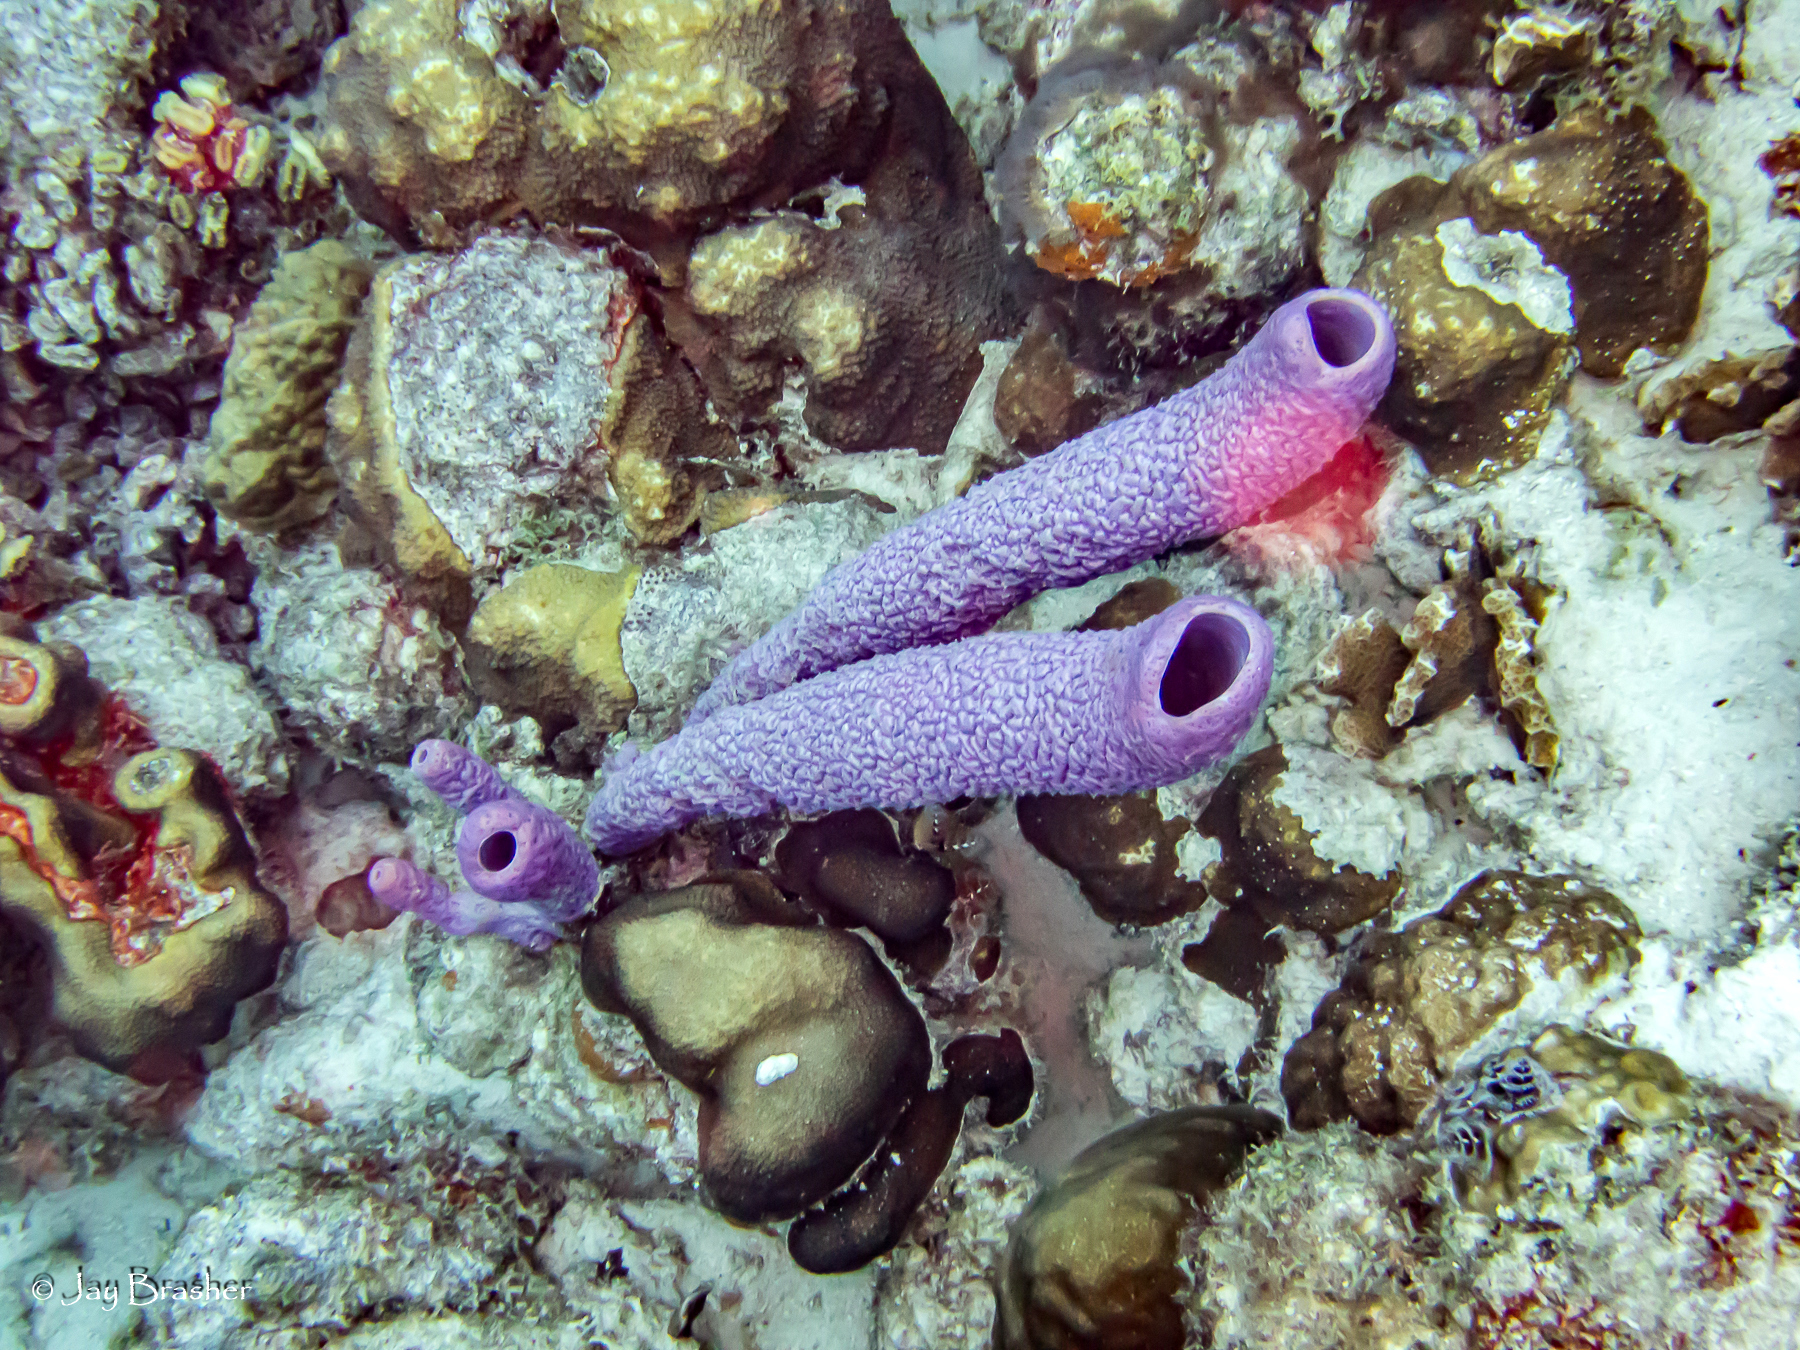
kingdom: Animalia
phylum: Cnidaria
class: Anthozoa
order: Scleractinia
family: Meandrinidae
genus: Eusmilia
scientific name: Eusmilia fastigiata
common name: Smooth flower coral
